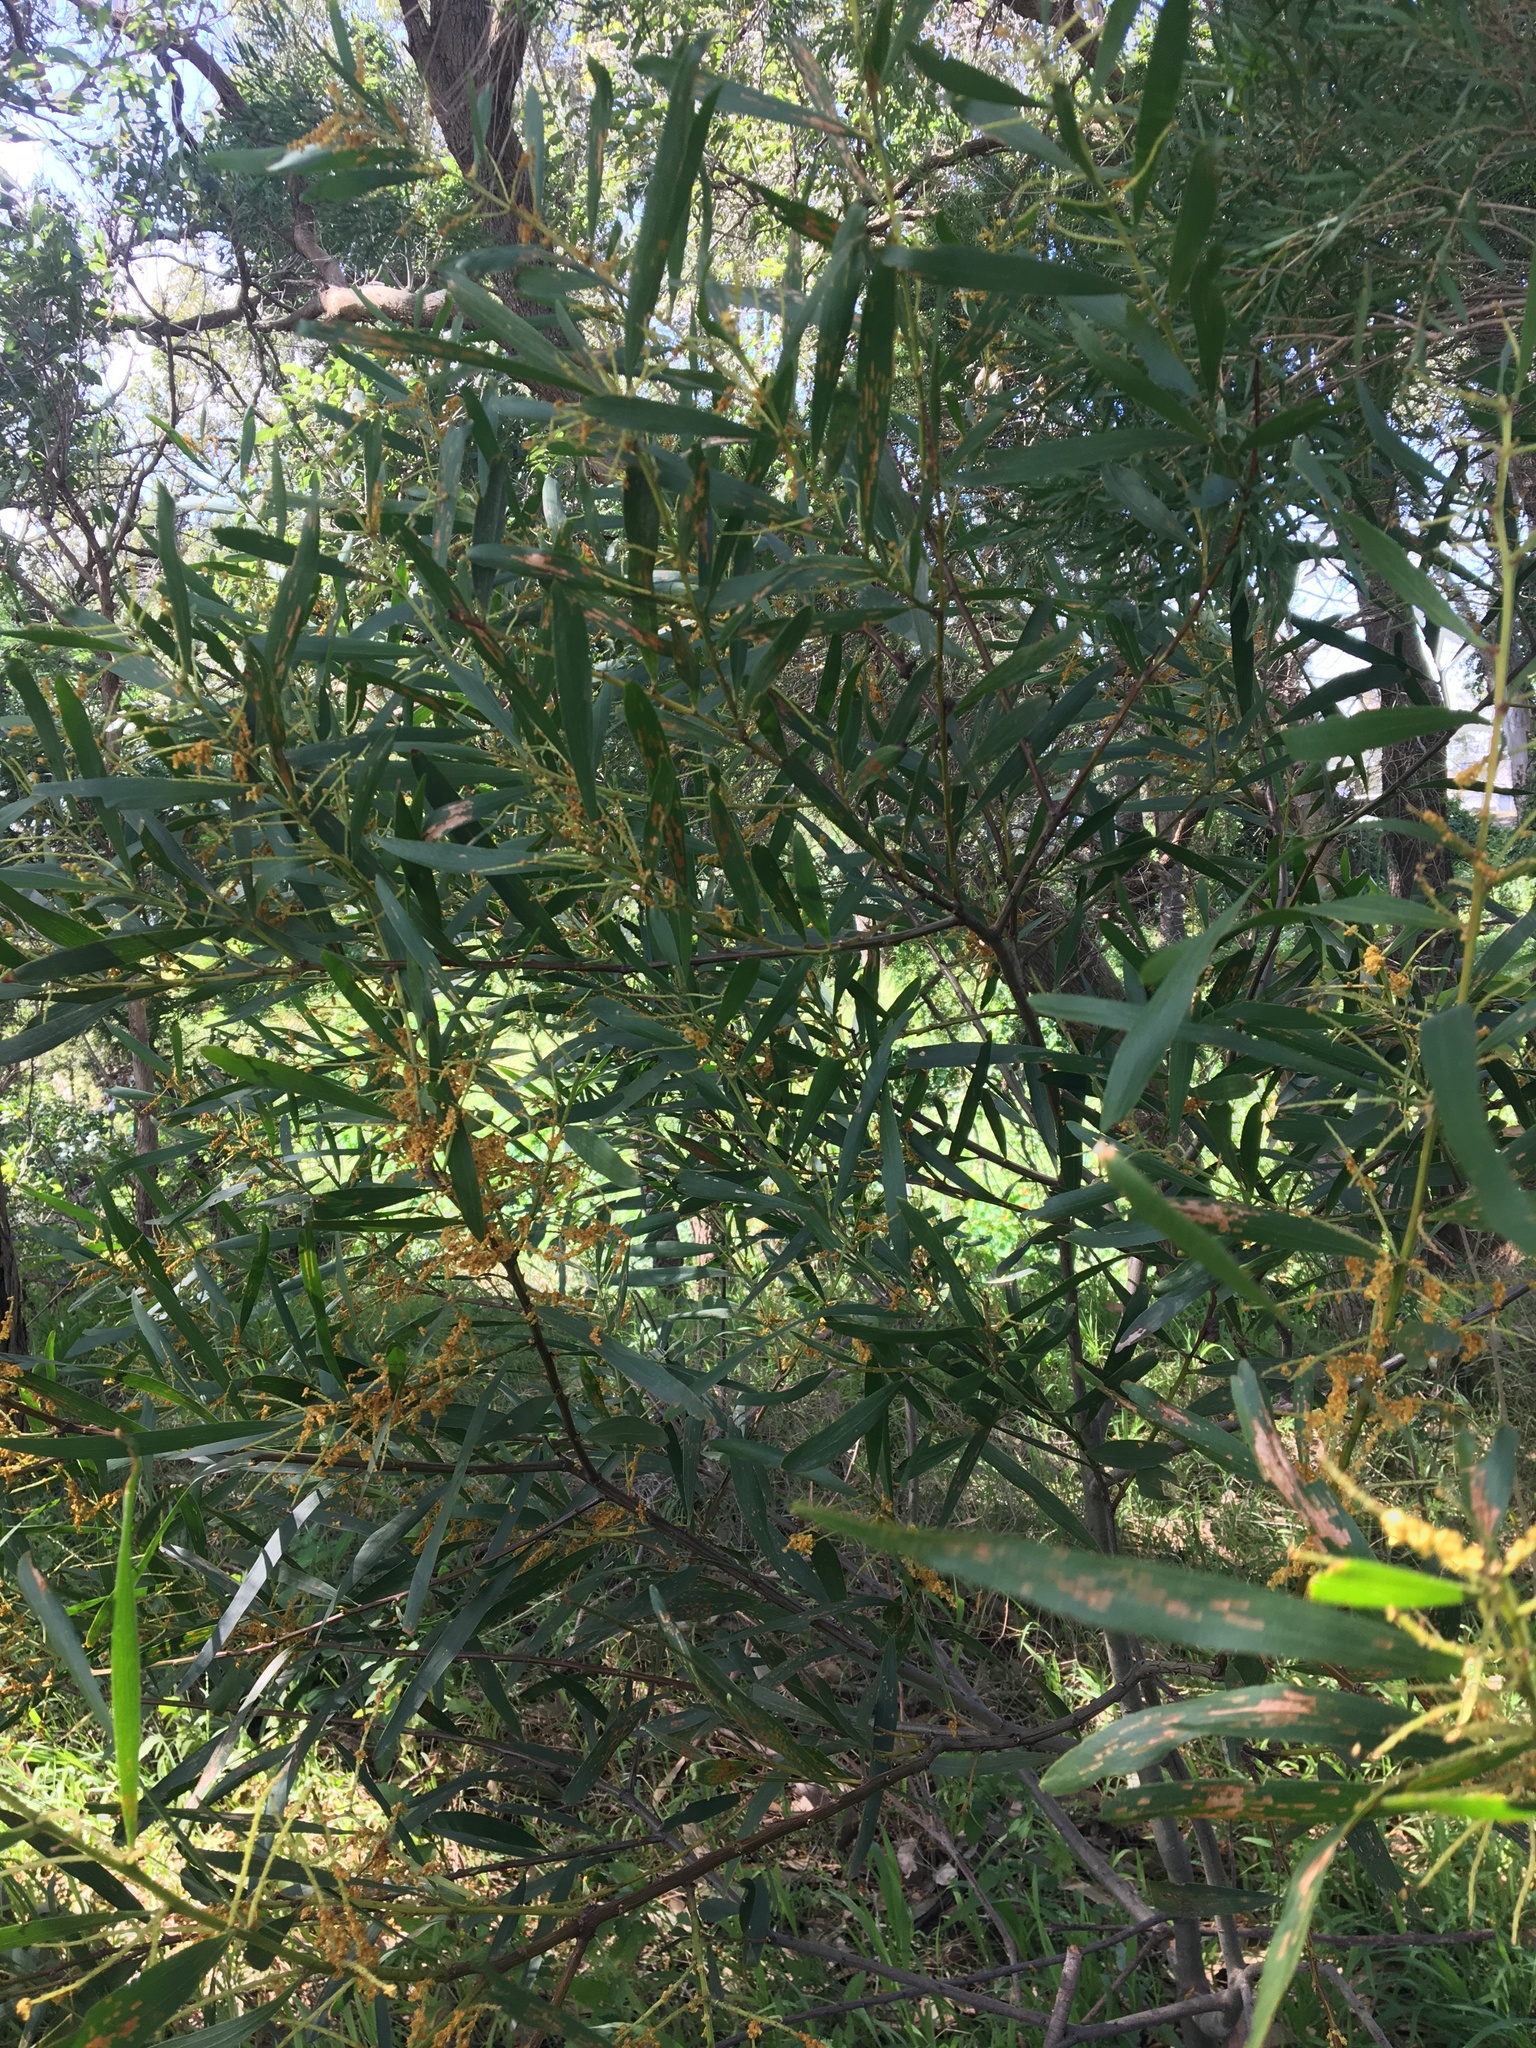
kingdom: Plantae
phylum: Tracheophyta
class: Magnoliopsida
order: Fabales
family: Fabaceae
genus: Acacia
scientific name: Acacia longifolia
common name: Sydney golden wattle
